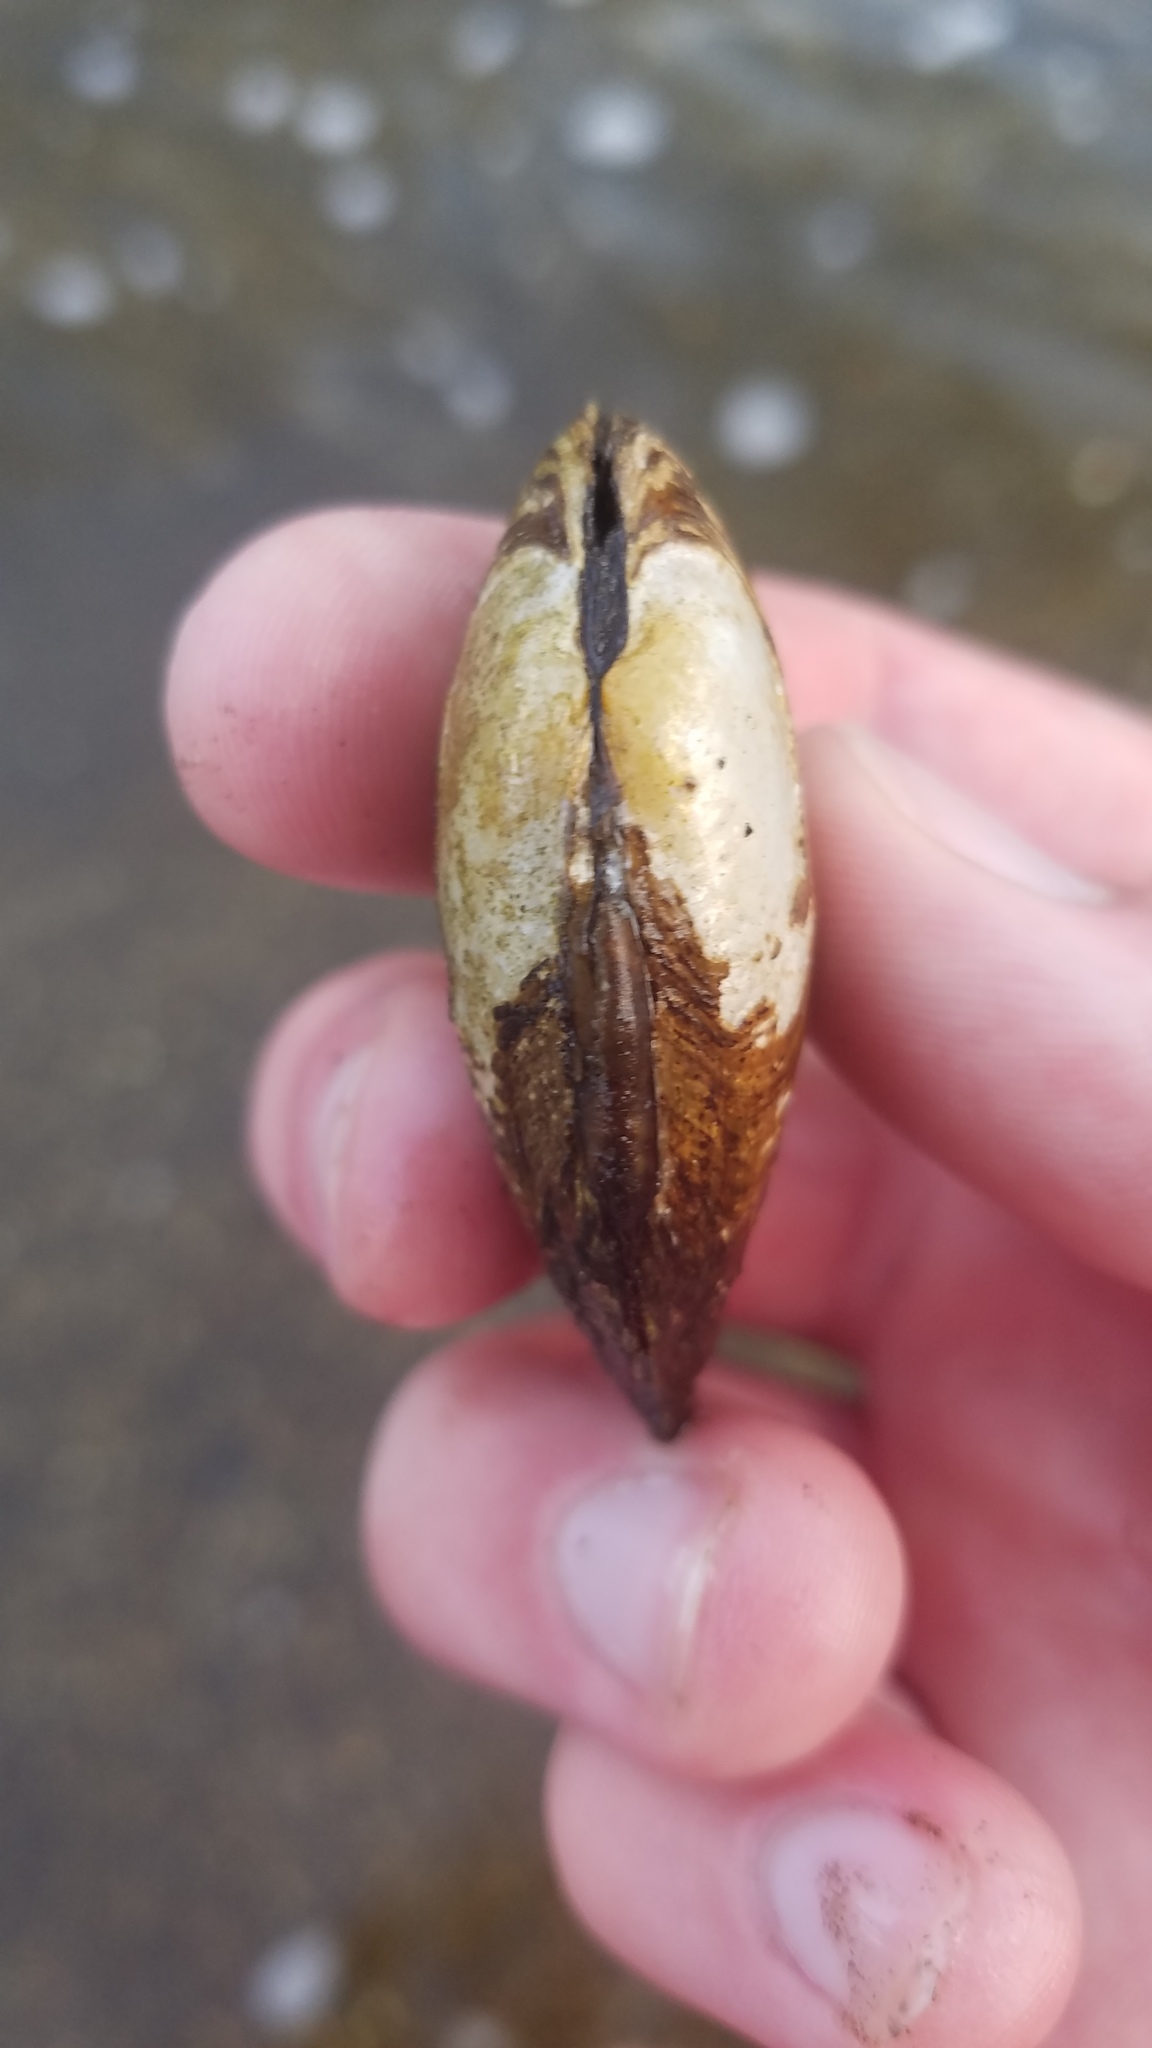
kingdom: Animalia
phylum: Mollusca
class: Bivalvia
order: Unionida
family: Unionidae
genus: Venustaconcha
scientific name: Venustaconcha ellipsiformis
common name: Ellipse
